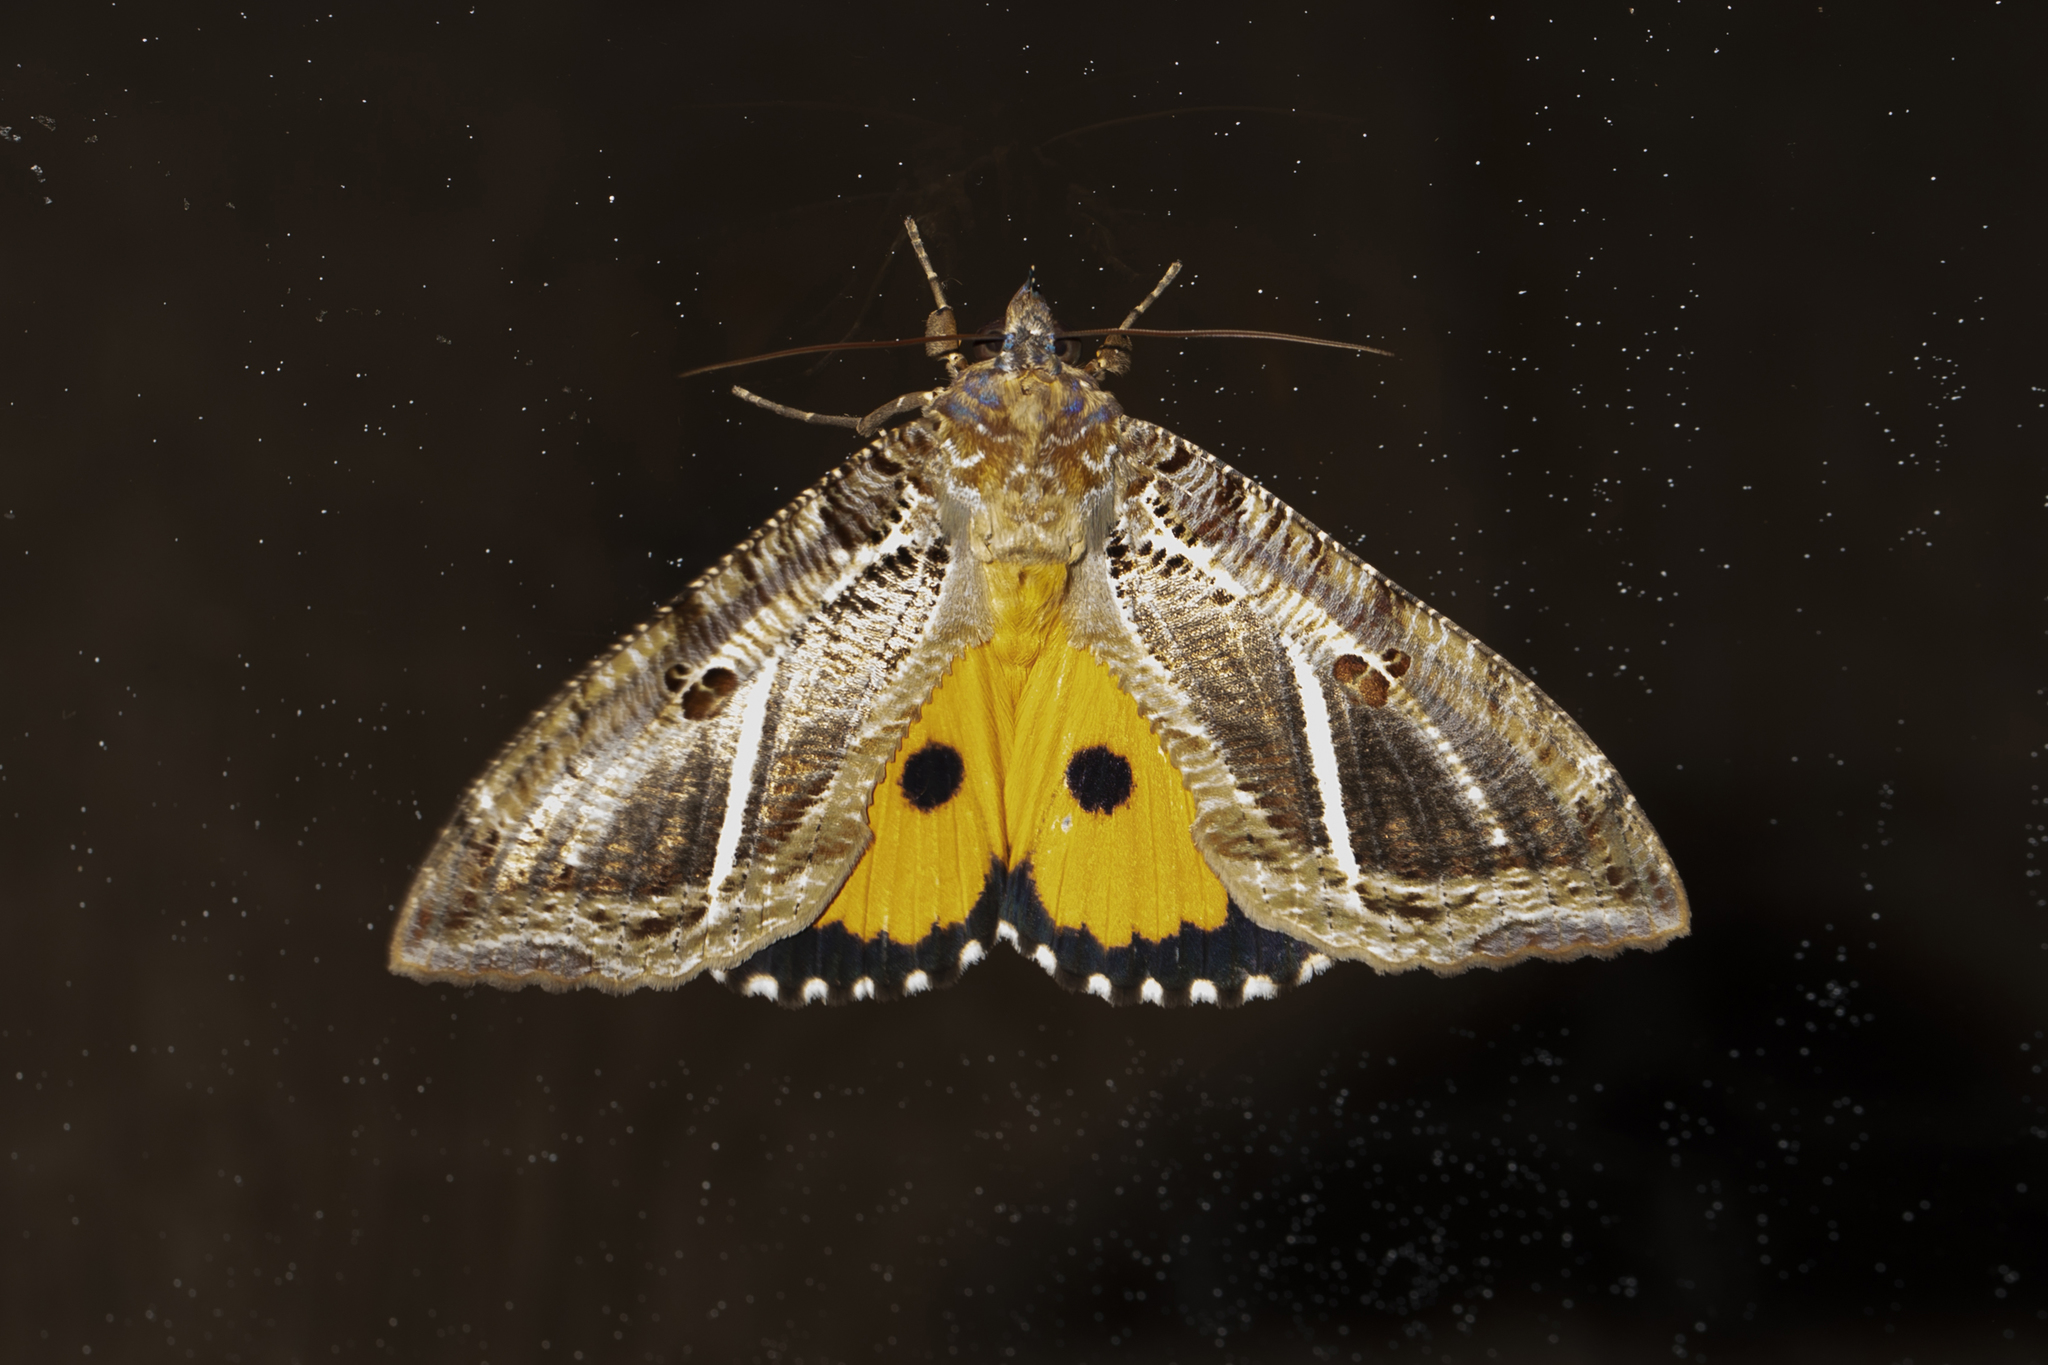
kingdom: Animalia
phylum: Arthropoda
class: Insecta
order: Lepidoptera
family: Erebidae
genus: Eudocima
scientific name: Eudocima materna
